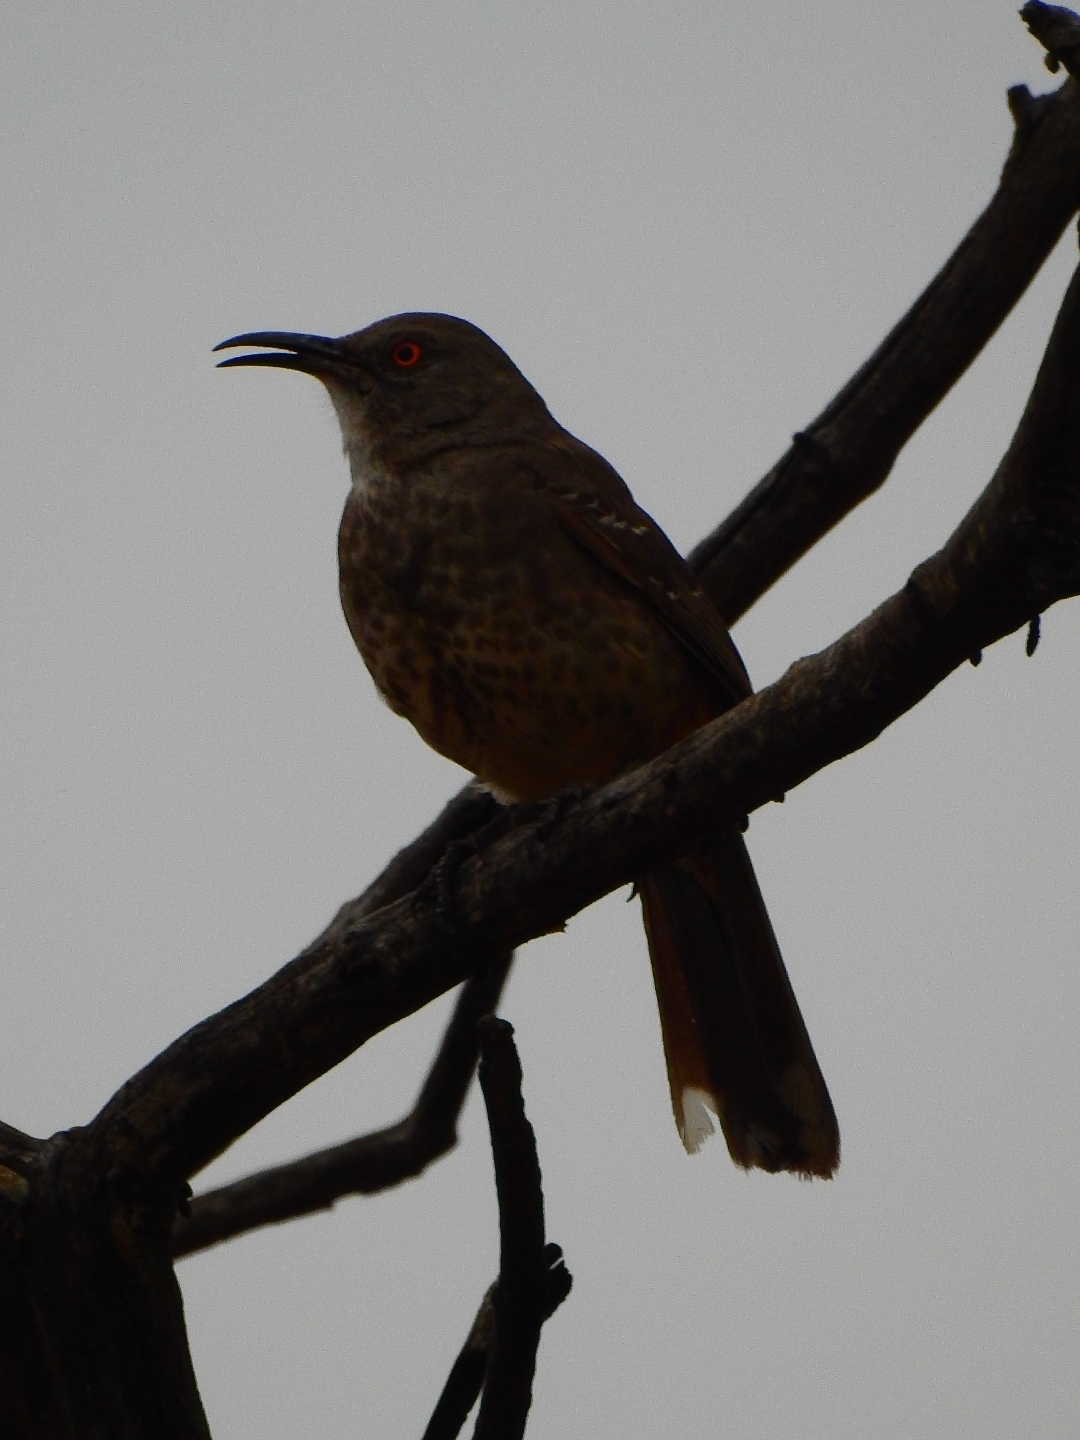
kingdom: Animalia
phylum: Chordata
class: Aves
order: Passeriformes
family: Mimidae
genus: Toxostoma
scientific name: Toxostoma curvirostre
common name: Curve-billed thrasher
